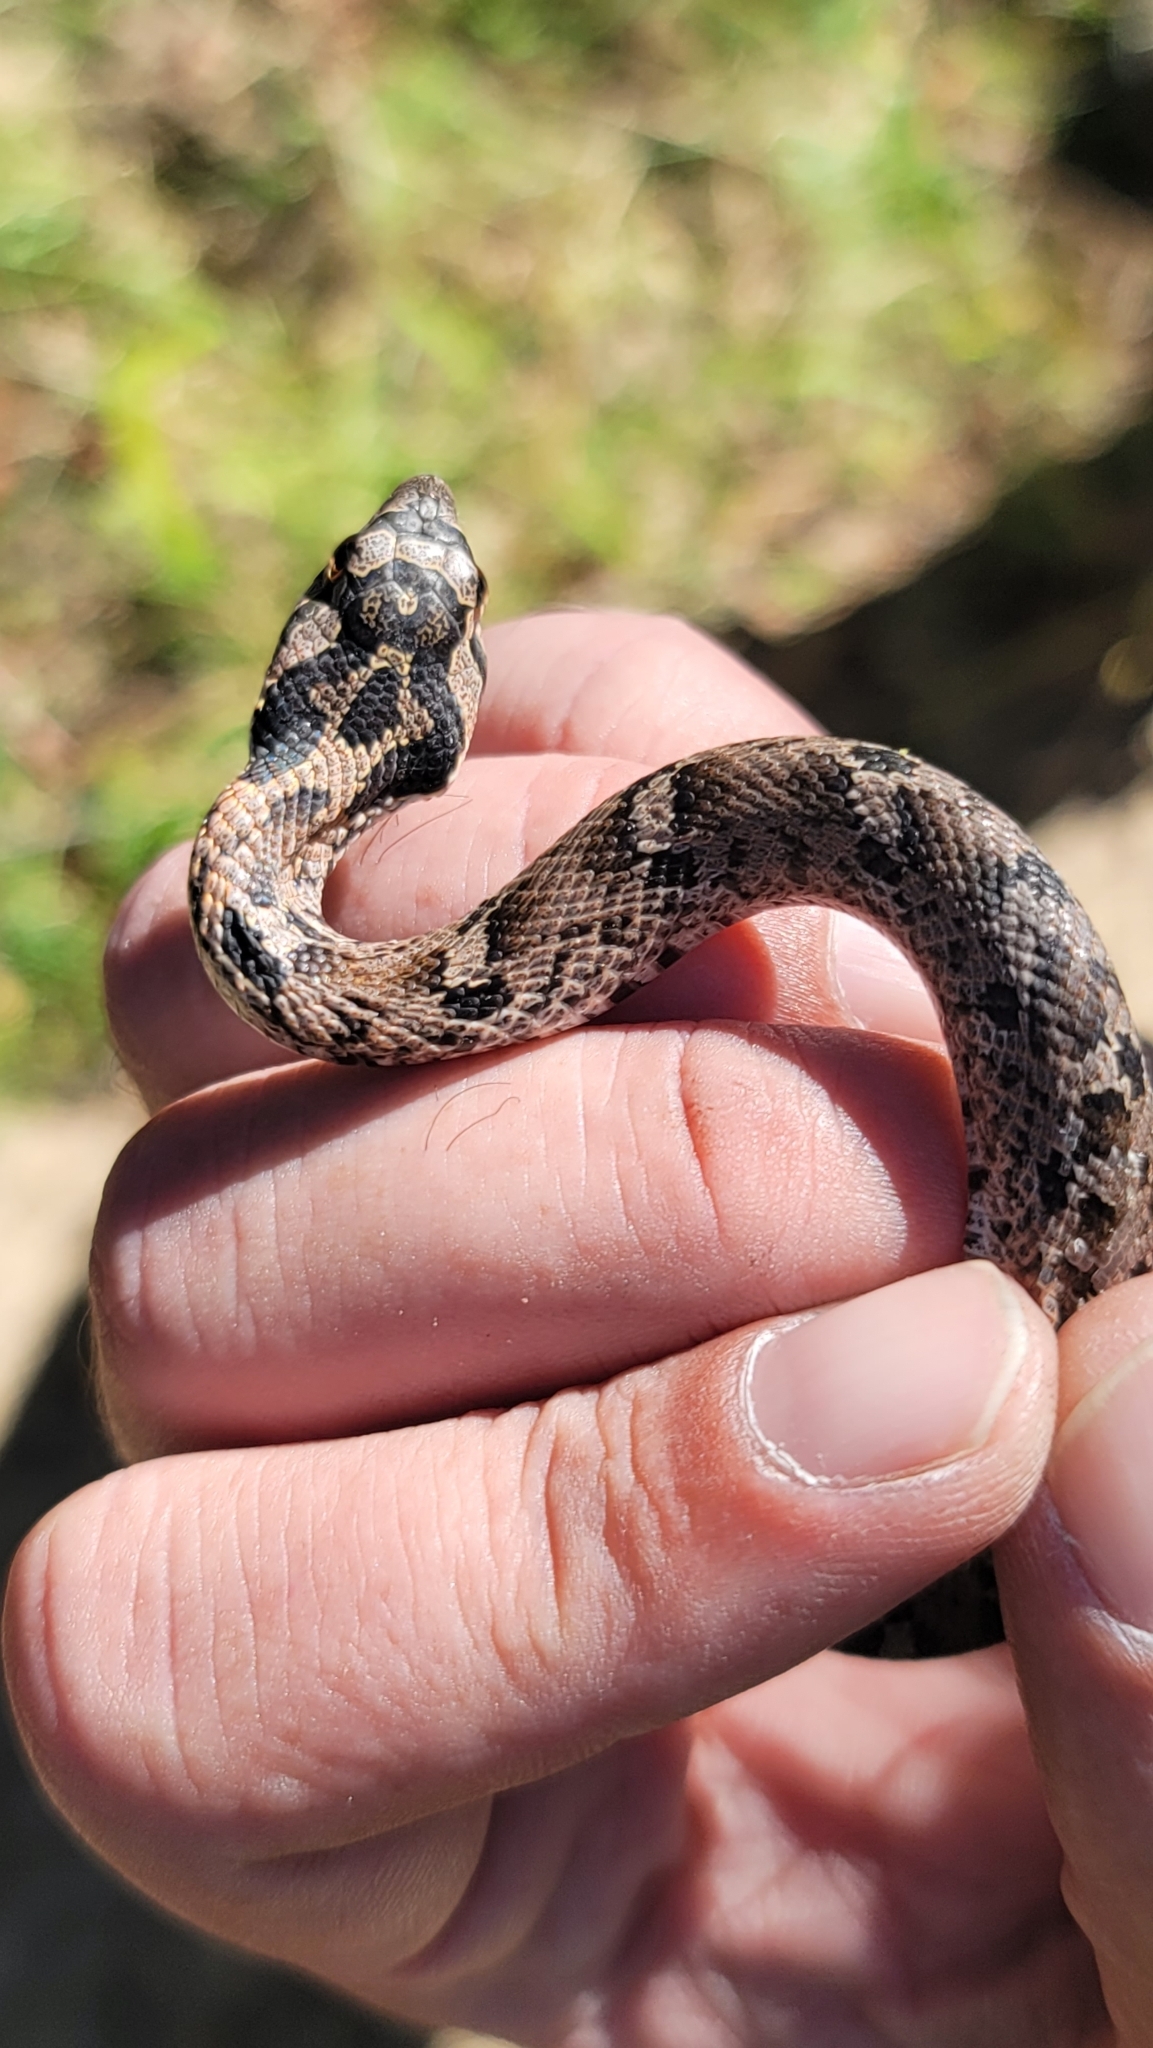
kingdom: Animalia
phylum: Chordata
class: Squamata
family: Colubridae
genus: Heterodon
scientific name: Heterodon platirhinos
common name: Eastern hognose snake
